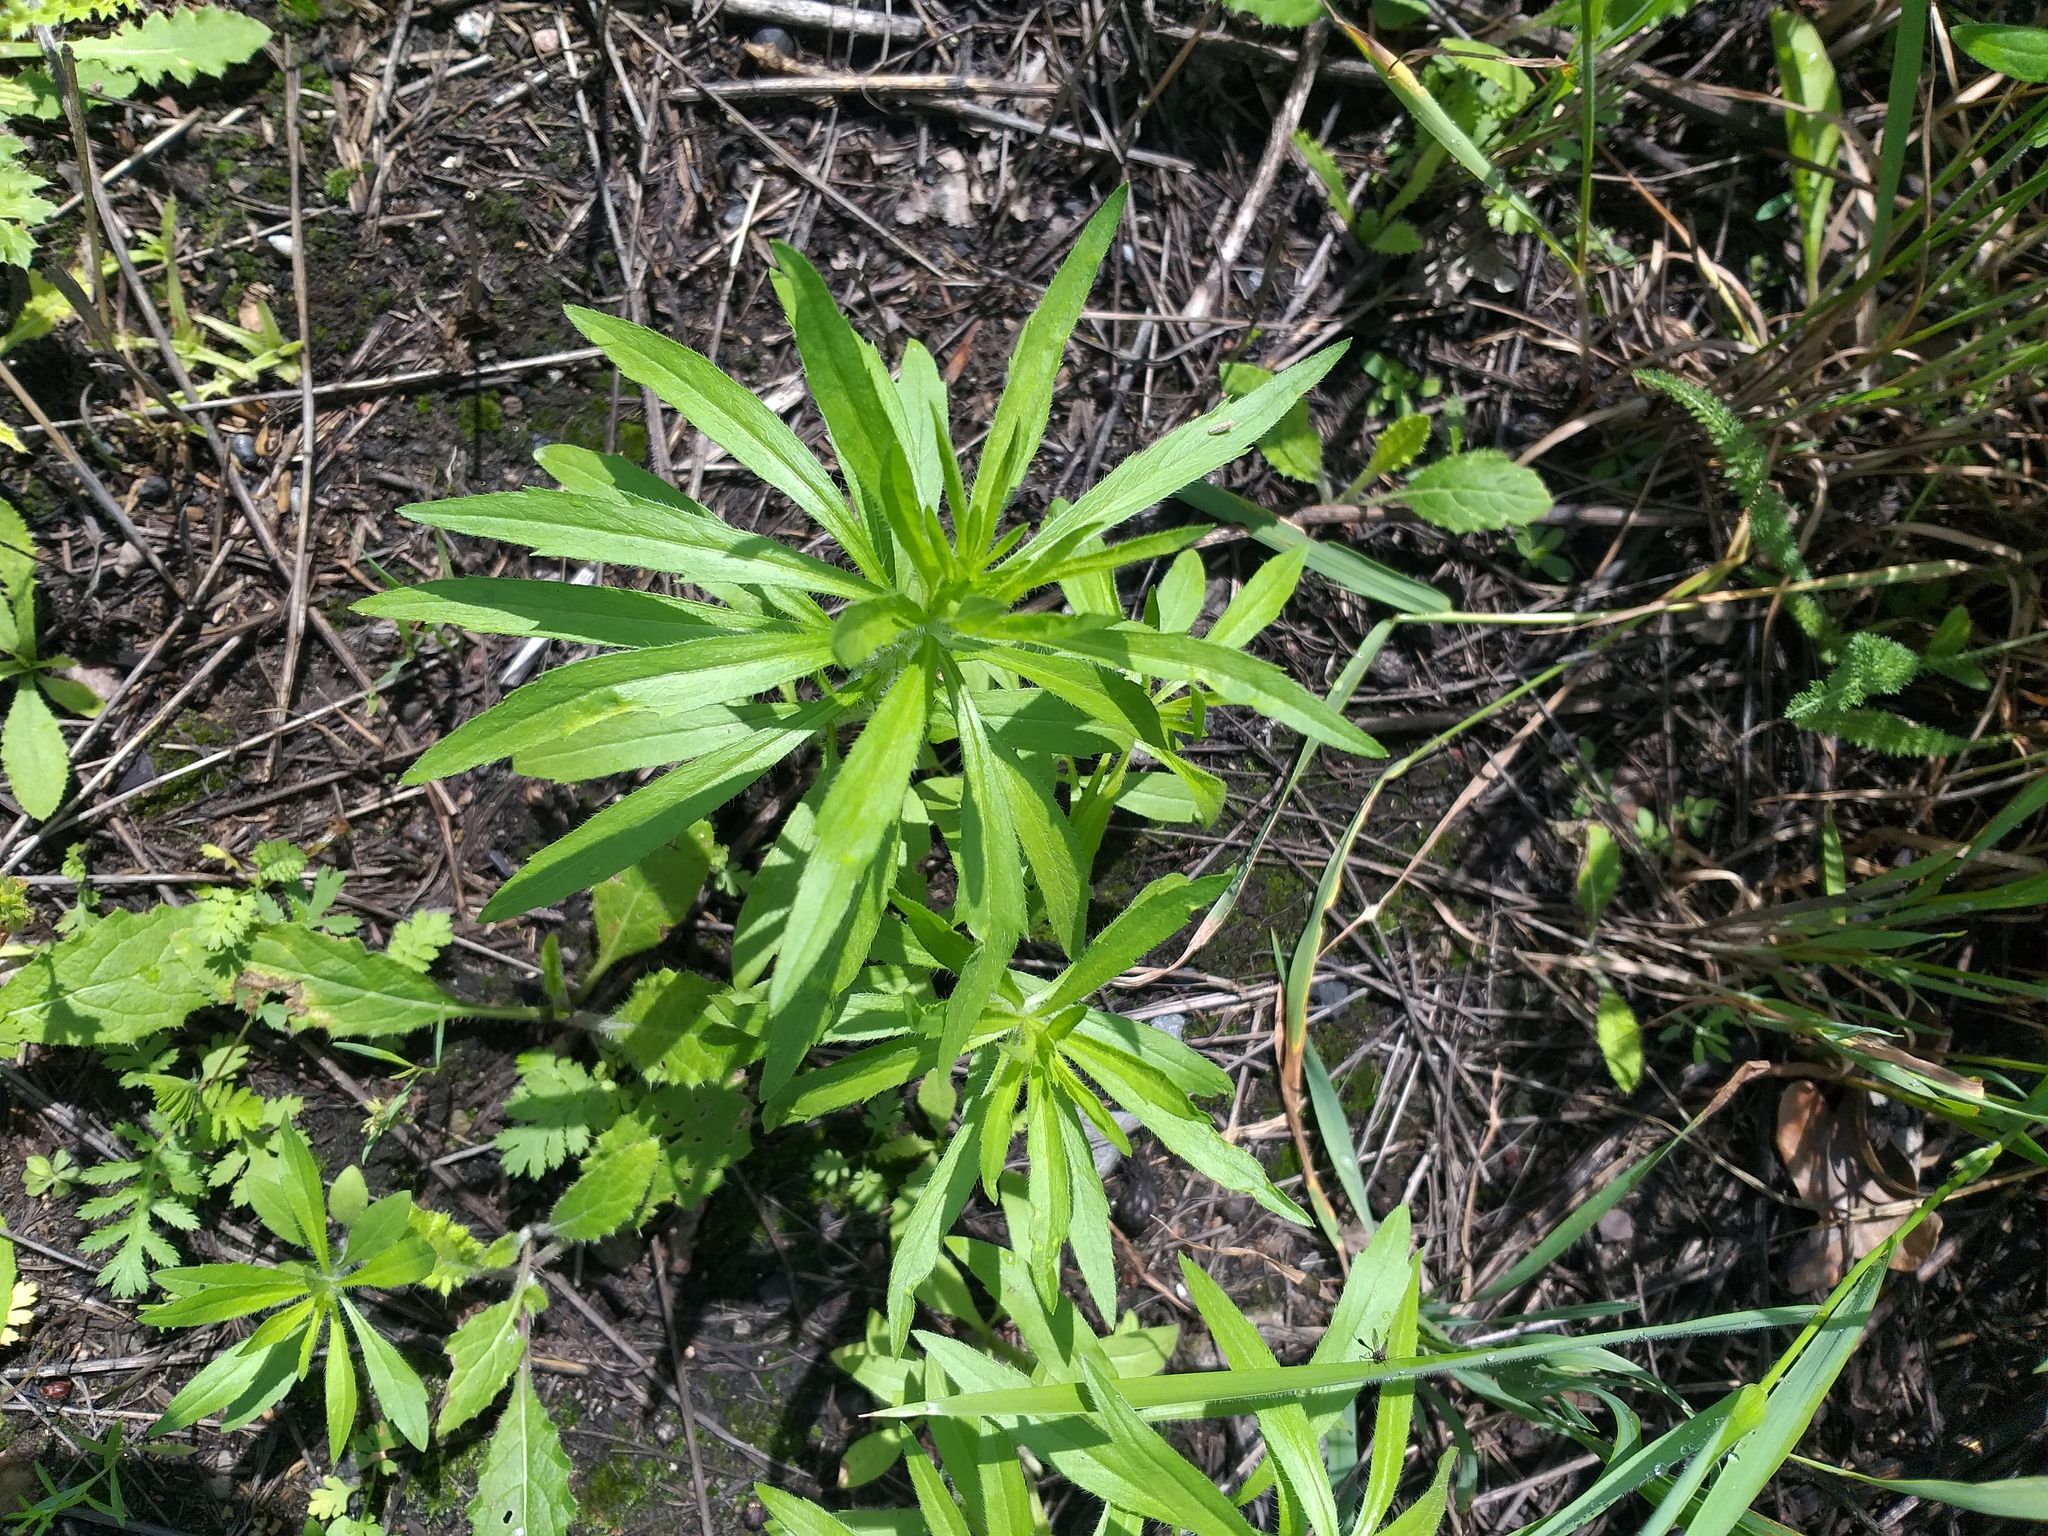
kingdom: Plantae
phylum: Tracheophyta
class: Magnoliopsida
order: Asterales
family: Asteraceae
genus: Erigeron
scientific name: Erigeron canadensis
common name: Canadian fleabane
